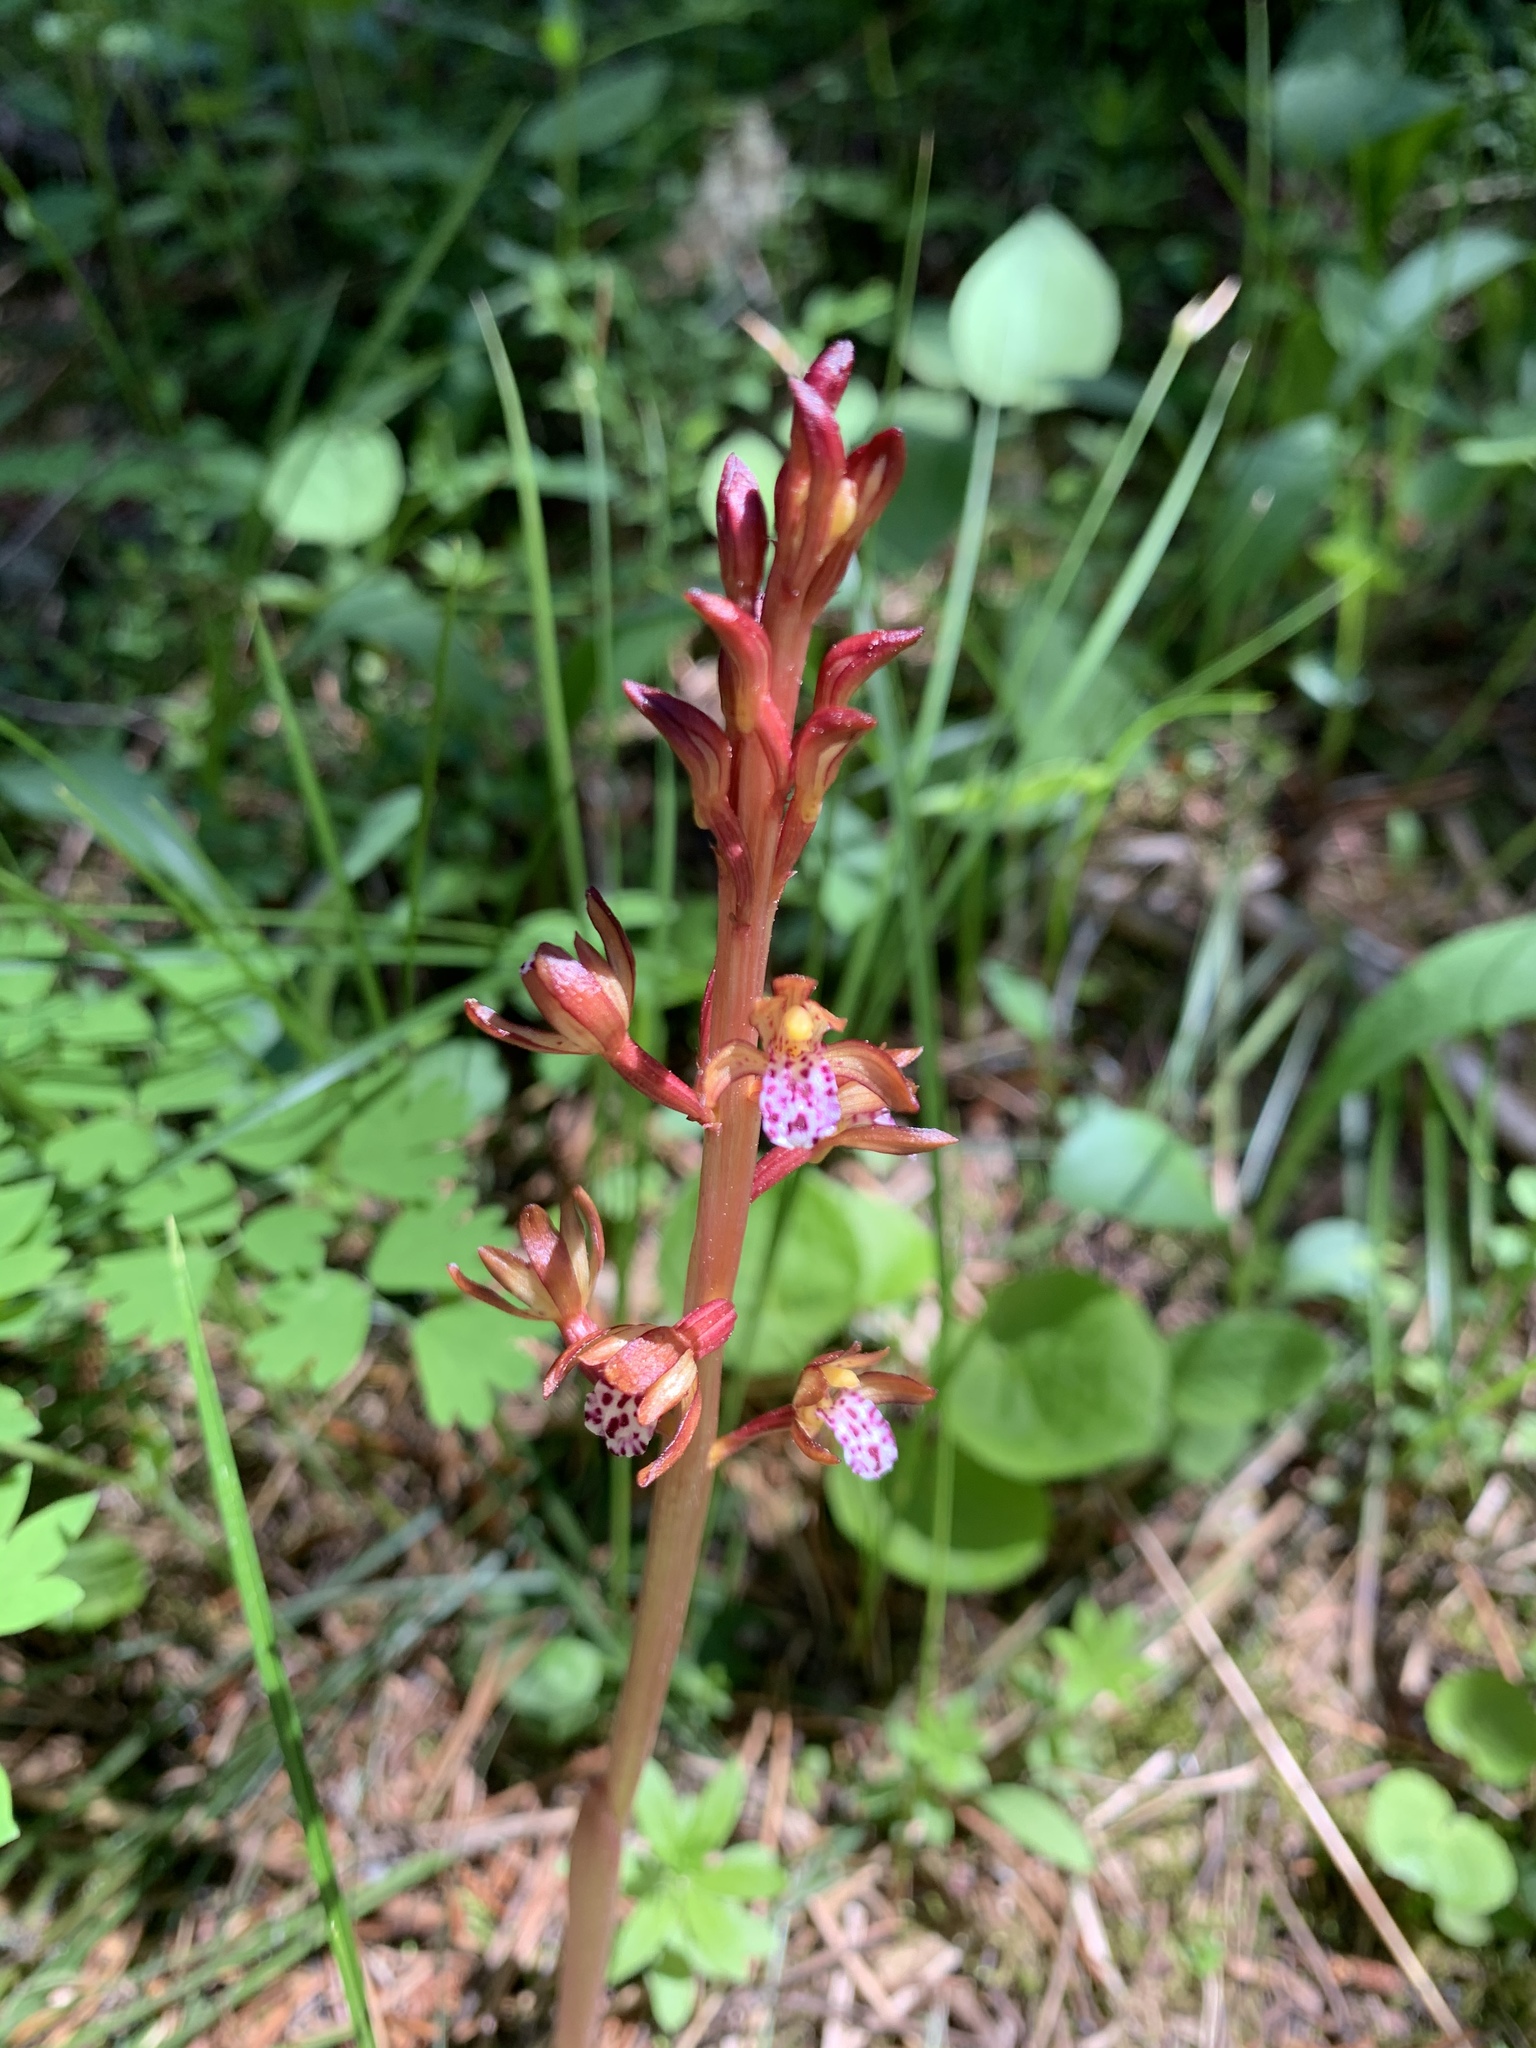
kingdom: Plantae
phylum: Tracheophyta
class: Liliopsida
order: Asparagales
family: Orchidaceae
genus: Corallorhiza
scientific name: Corallorhiza maculata
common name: Spotted coralroot
